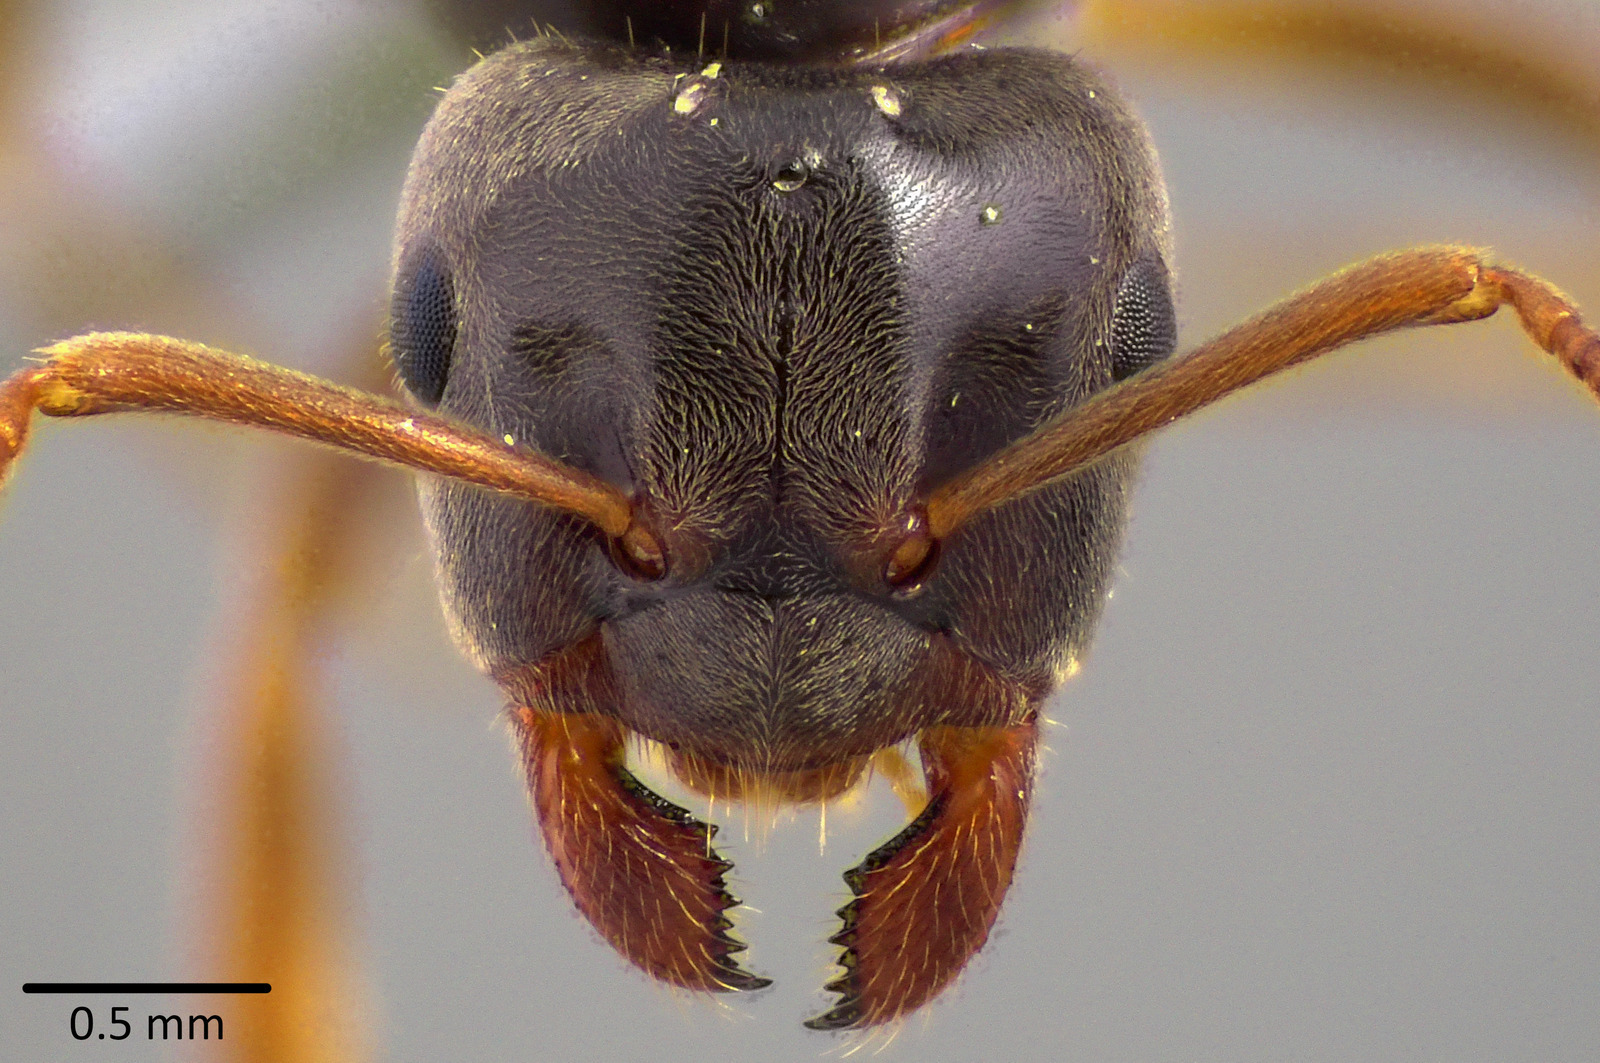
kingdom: Animalia
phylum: Arthropoda
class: Insecta
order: Hymenoptera
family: Formicidae
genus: Lasius
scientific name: Lasius aphidicola
